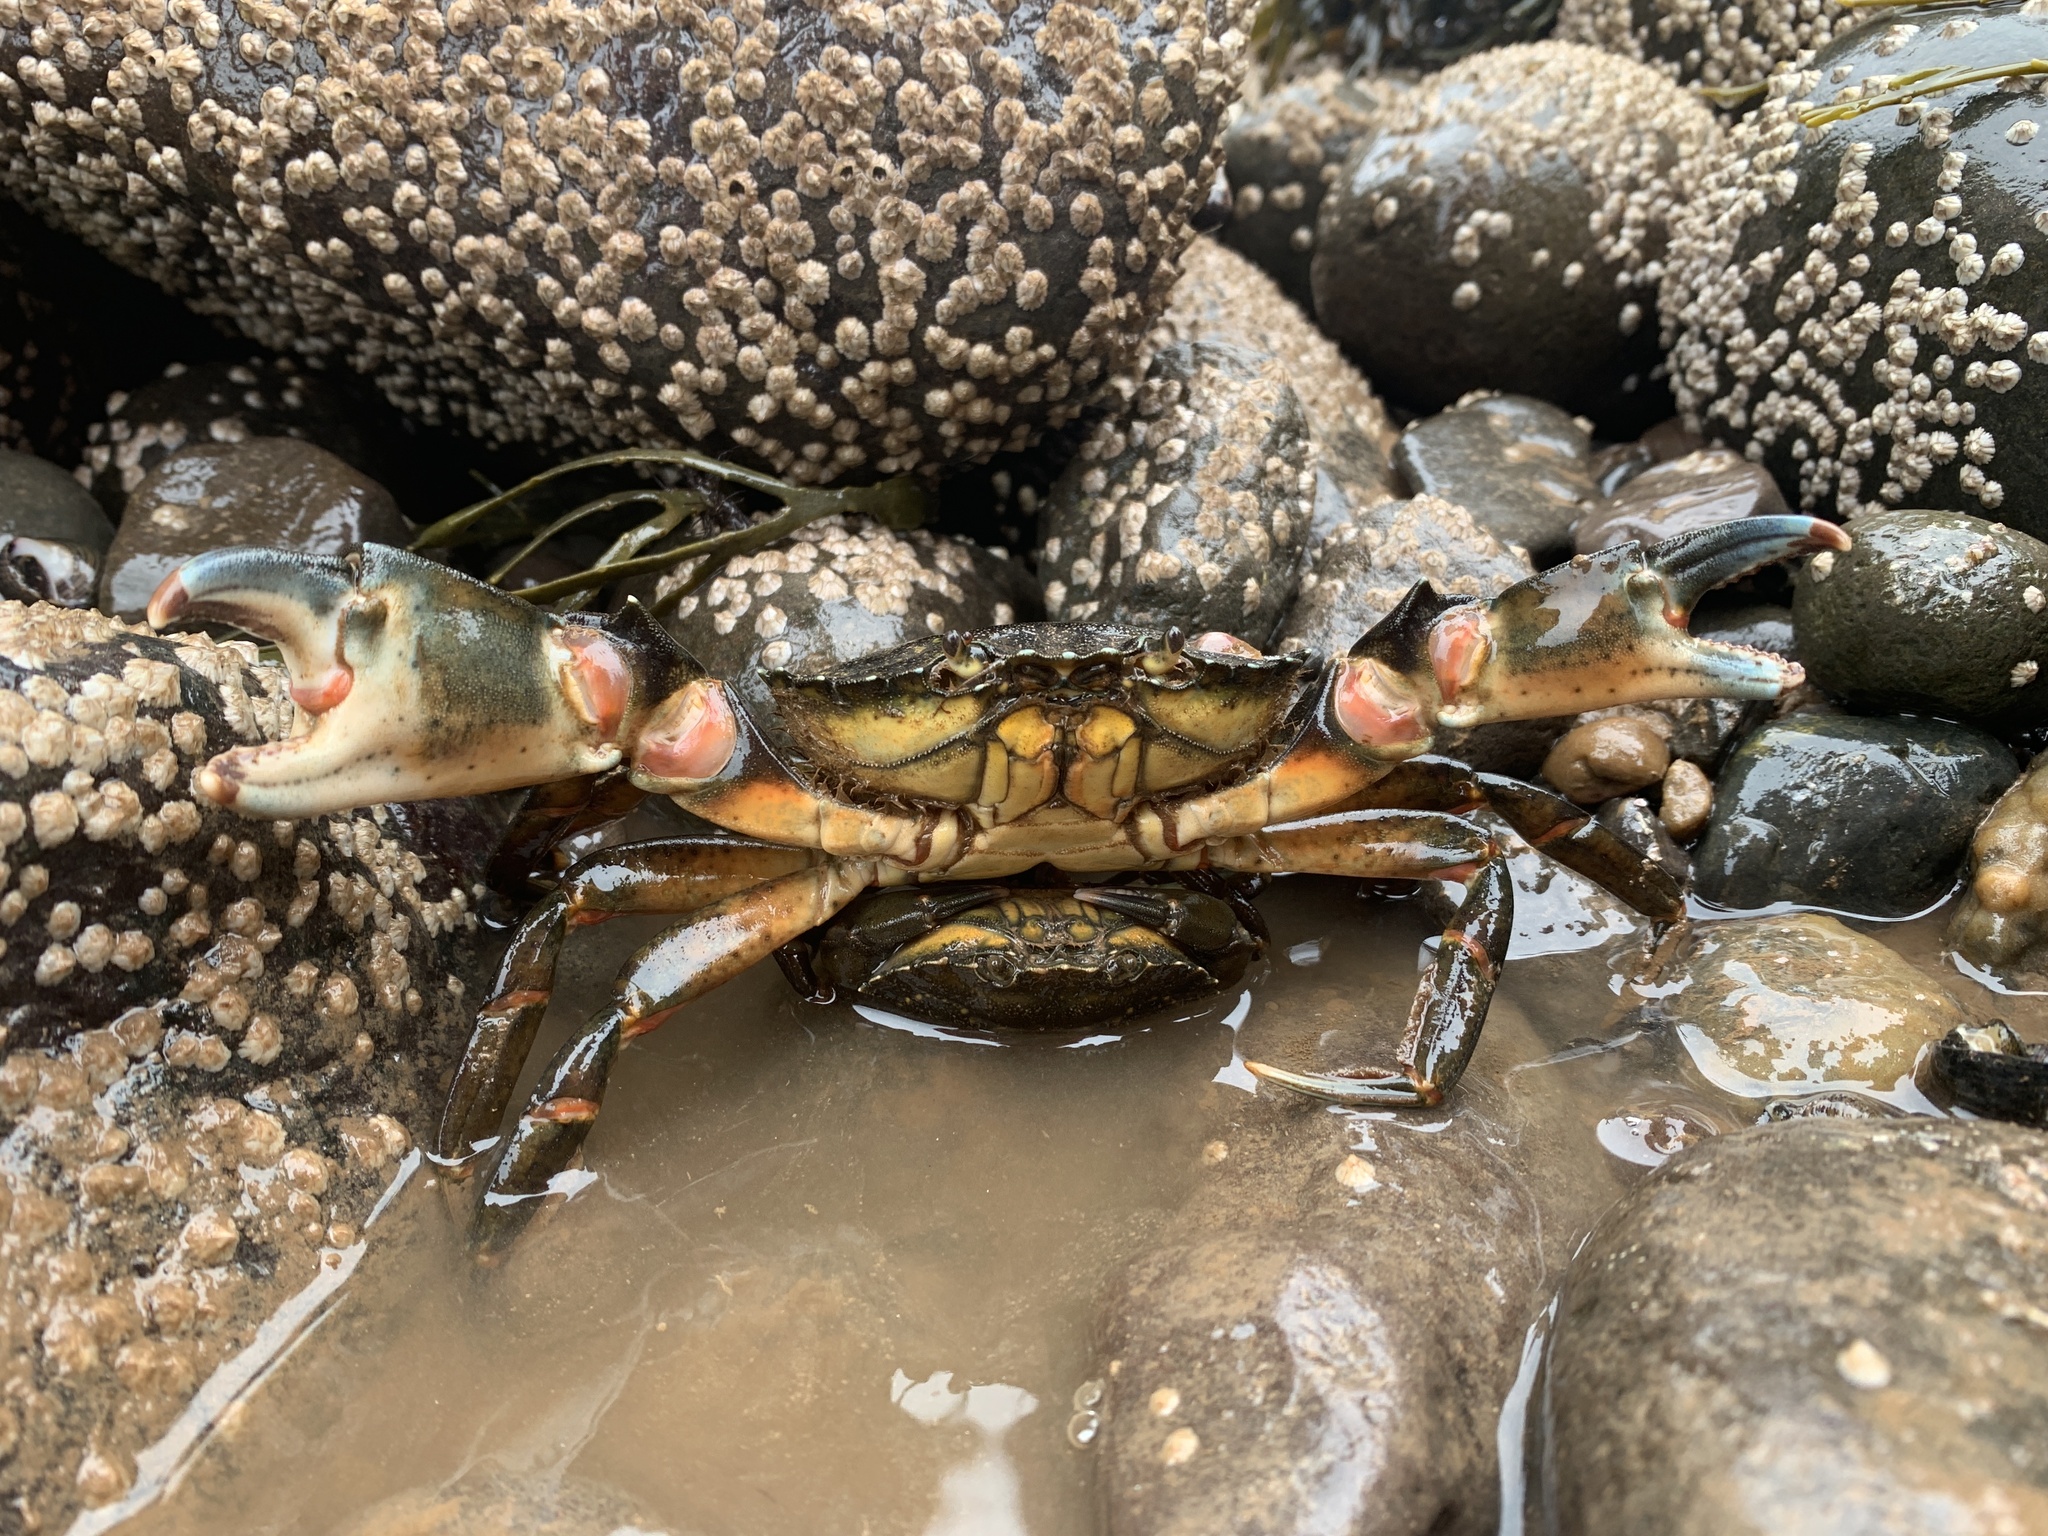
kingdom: Animalia
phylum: Arthropoda
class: Malacostraca
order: Decapoda
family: Carcinidae
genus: Carcinus
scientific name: Carcinus maenas
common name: European green crab
